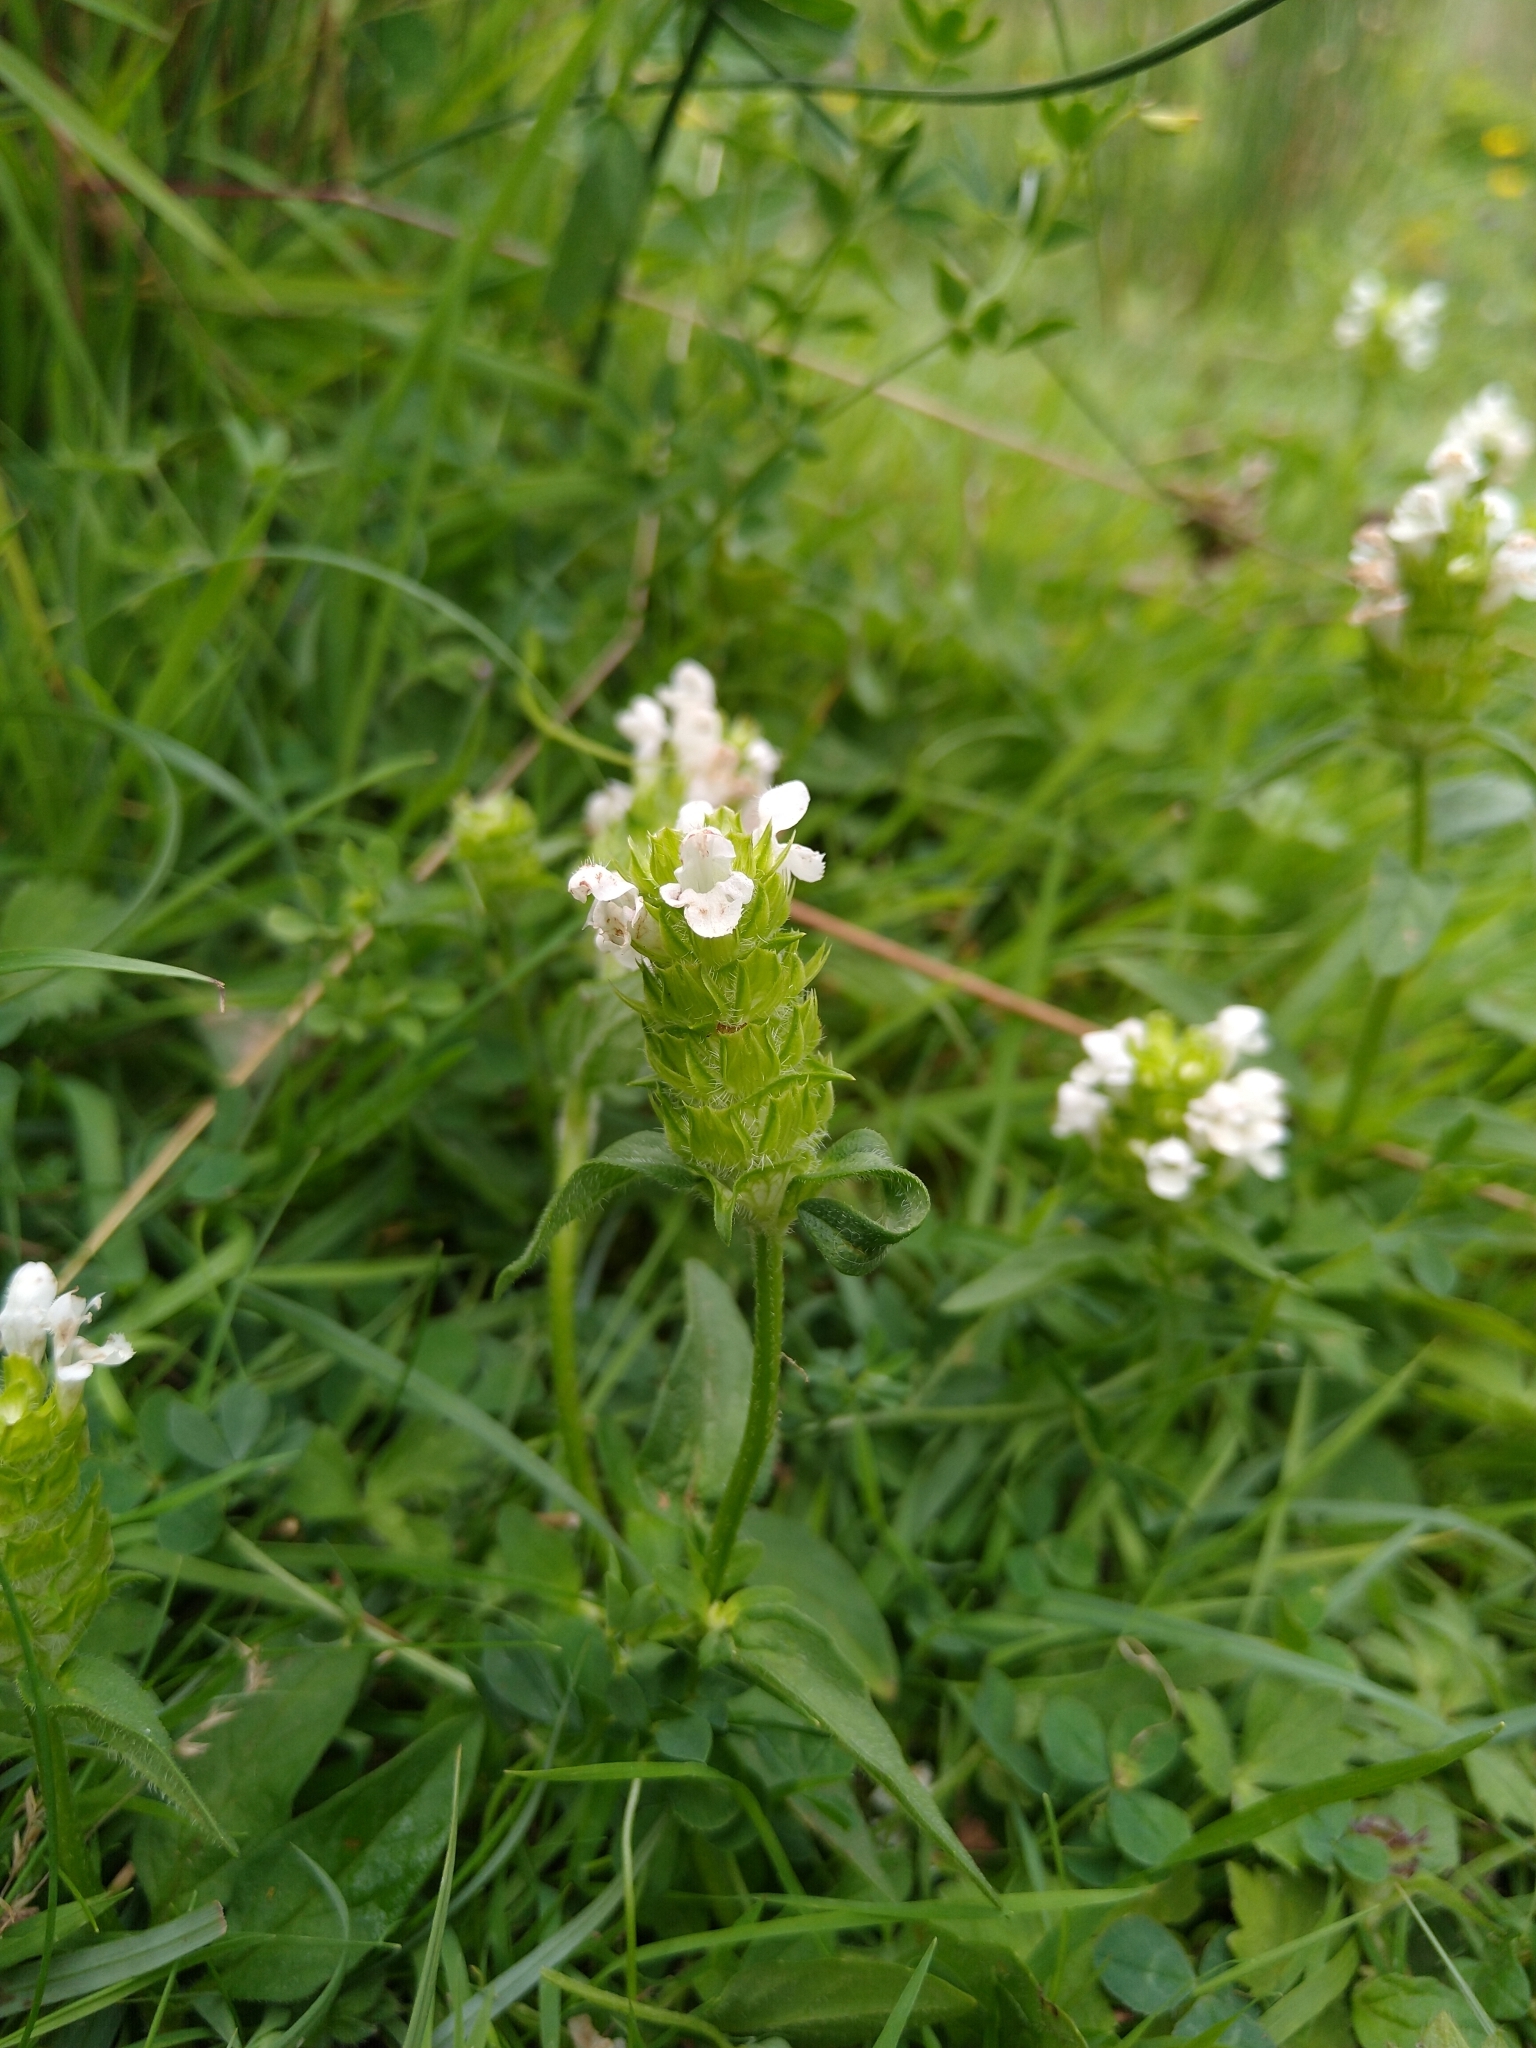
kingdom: Plantae
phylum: Tracheophyta
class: Magnoliopsida
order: Lamiales
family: Lamiaceae
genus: Prunella
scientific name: Prunella vulgaris
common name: Heal-all
